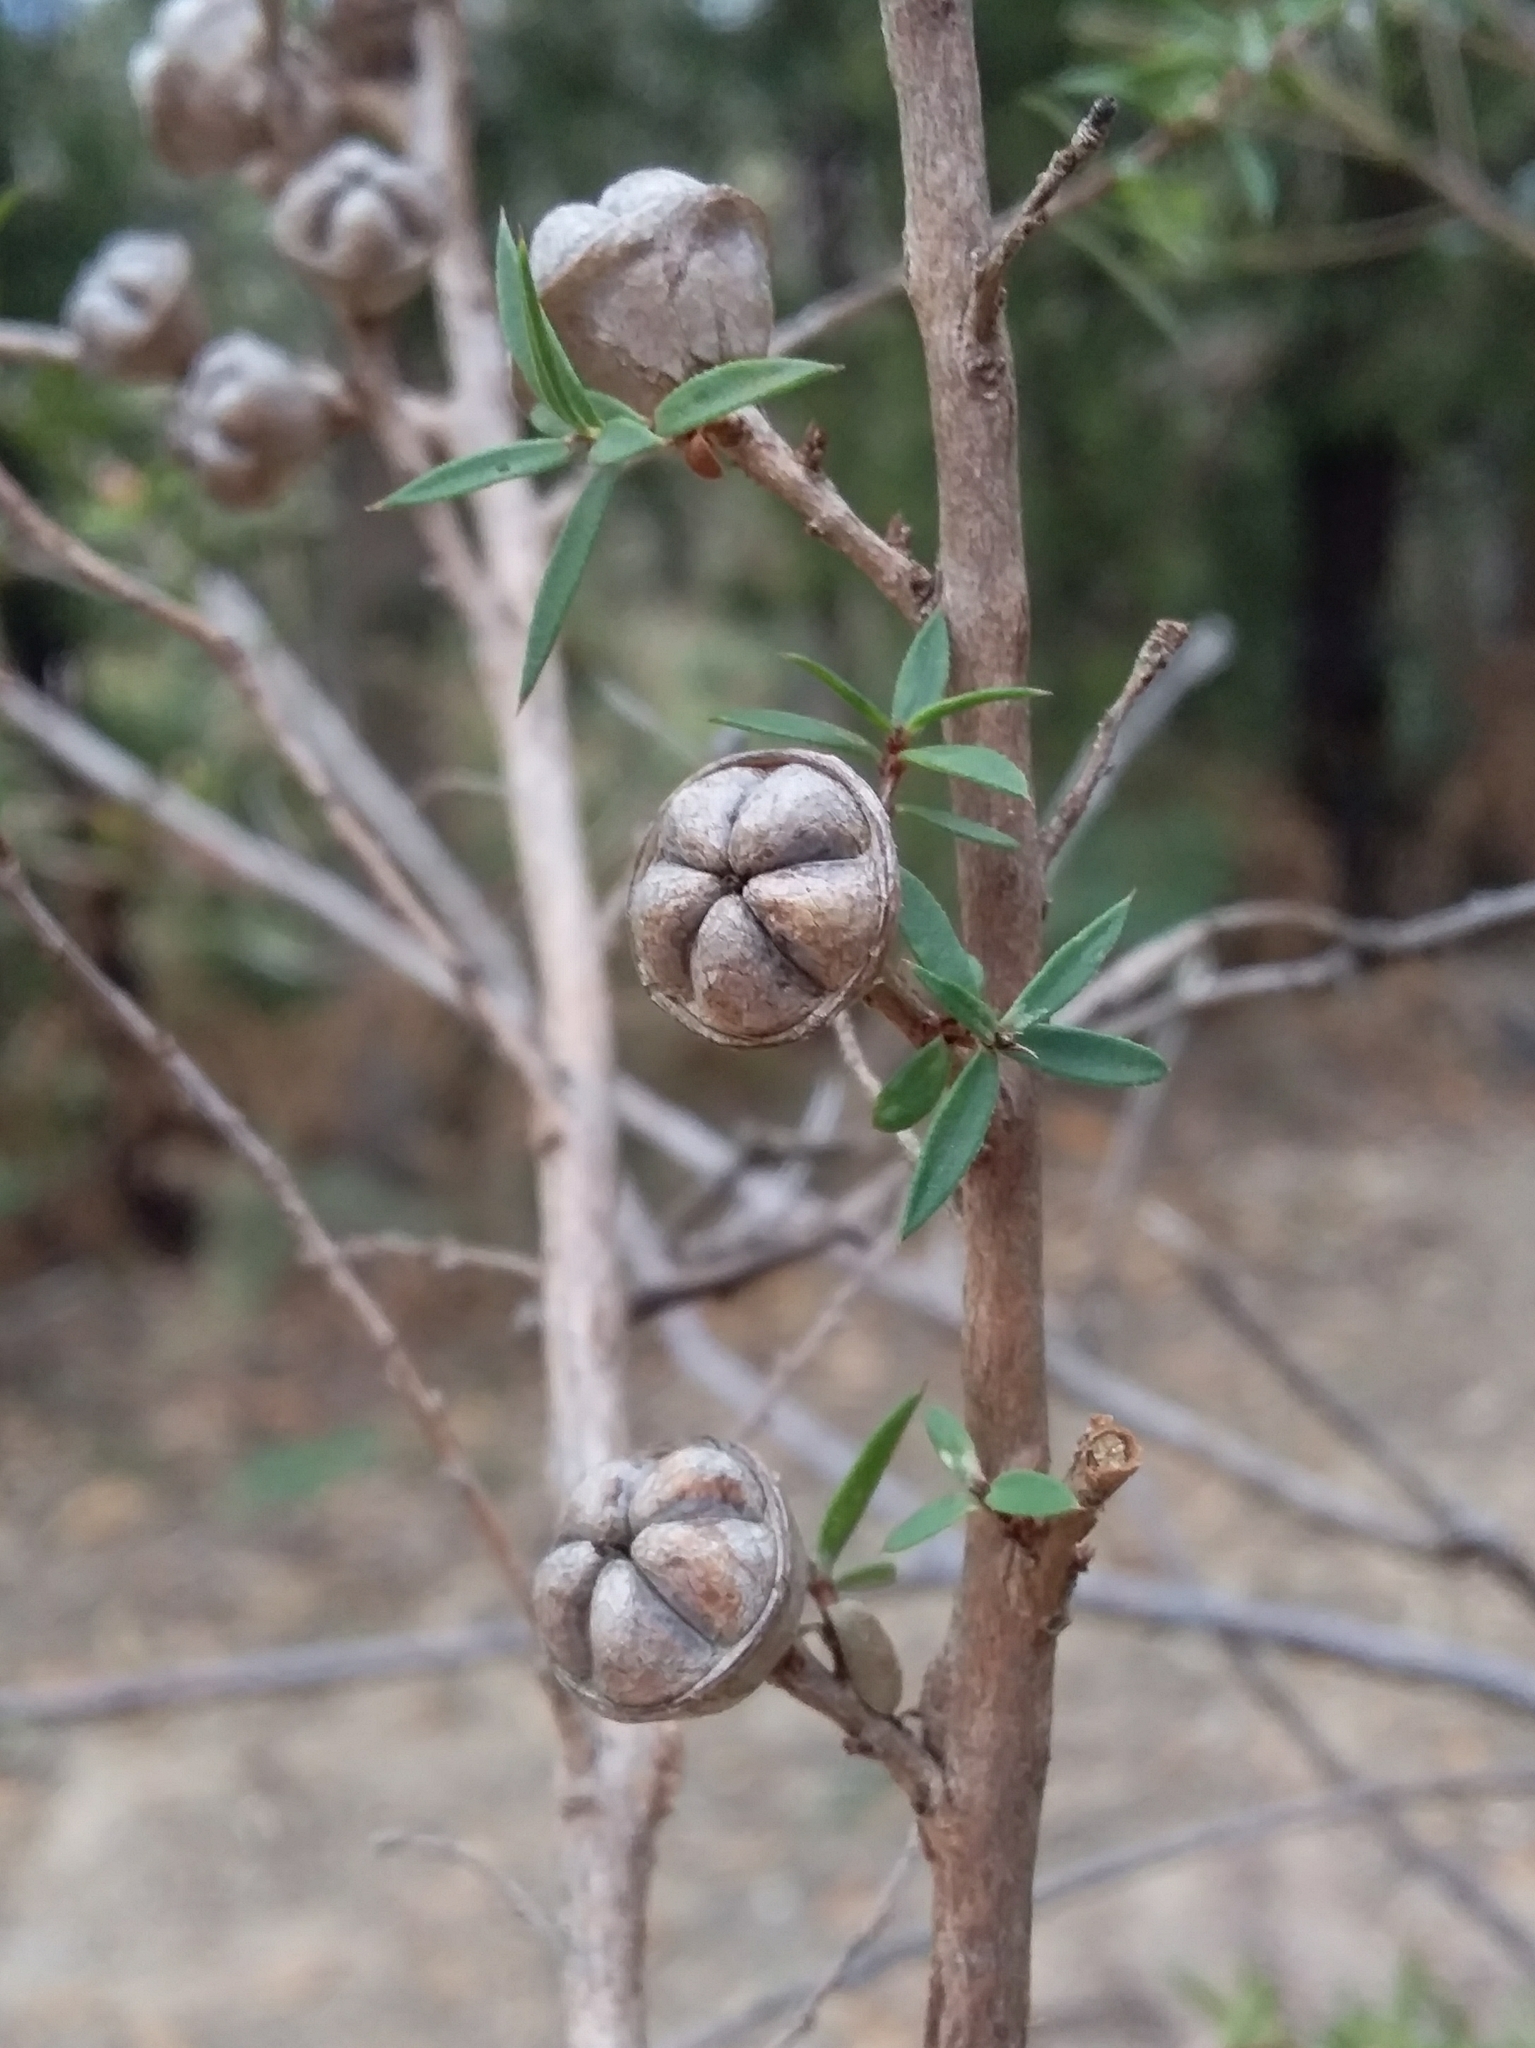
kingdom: Plantae
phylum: Tracheophyta
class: Magnoliopsida
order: Myrtales
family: Myrtaceae
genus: Leptospermum
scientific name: Leptospermum continentale
